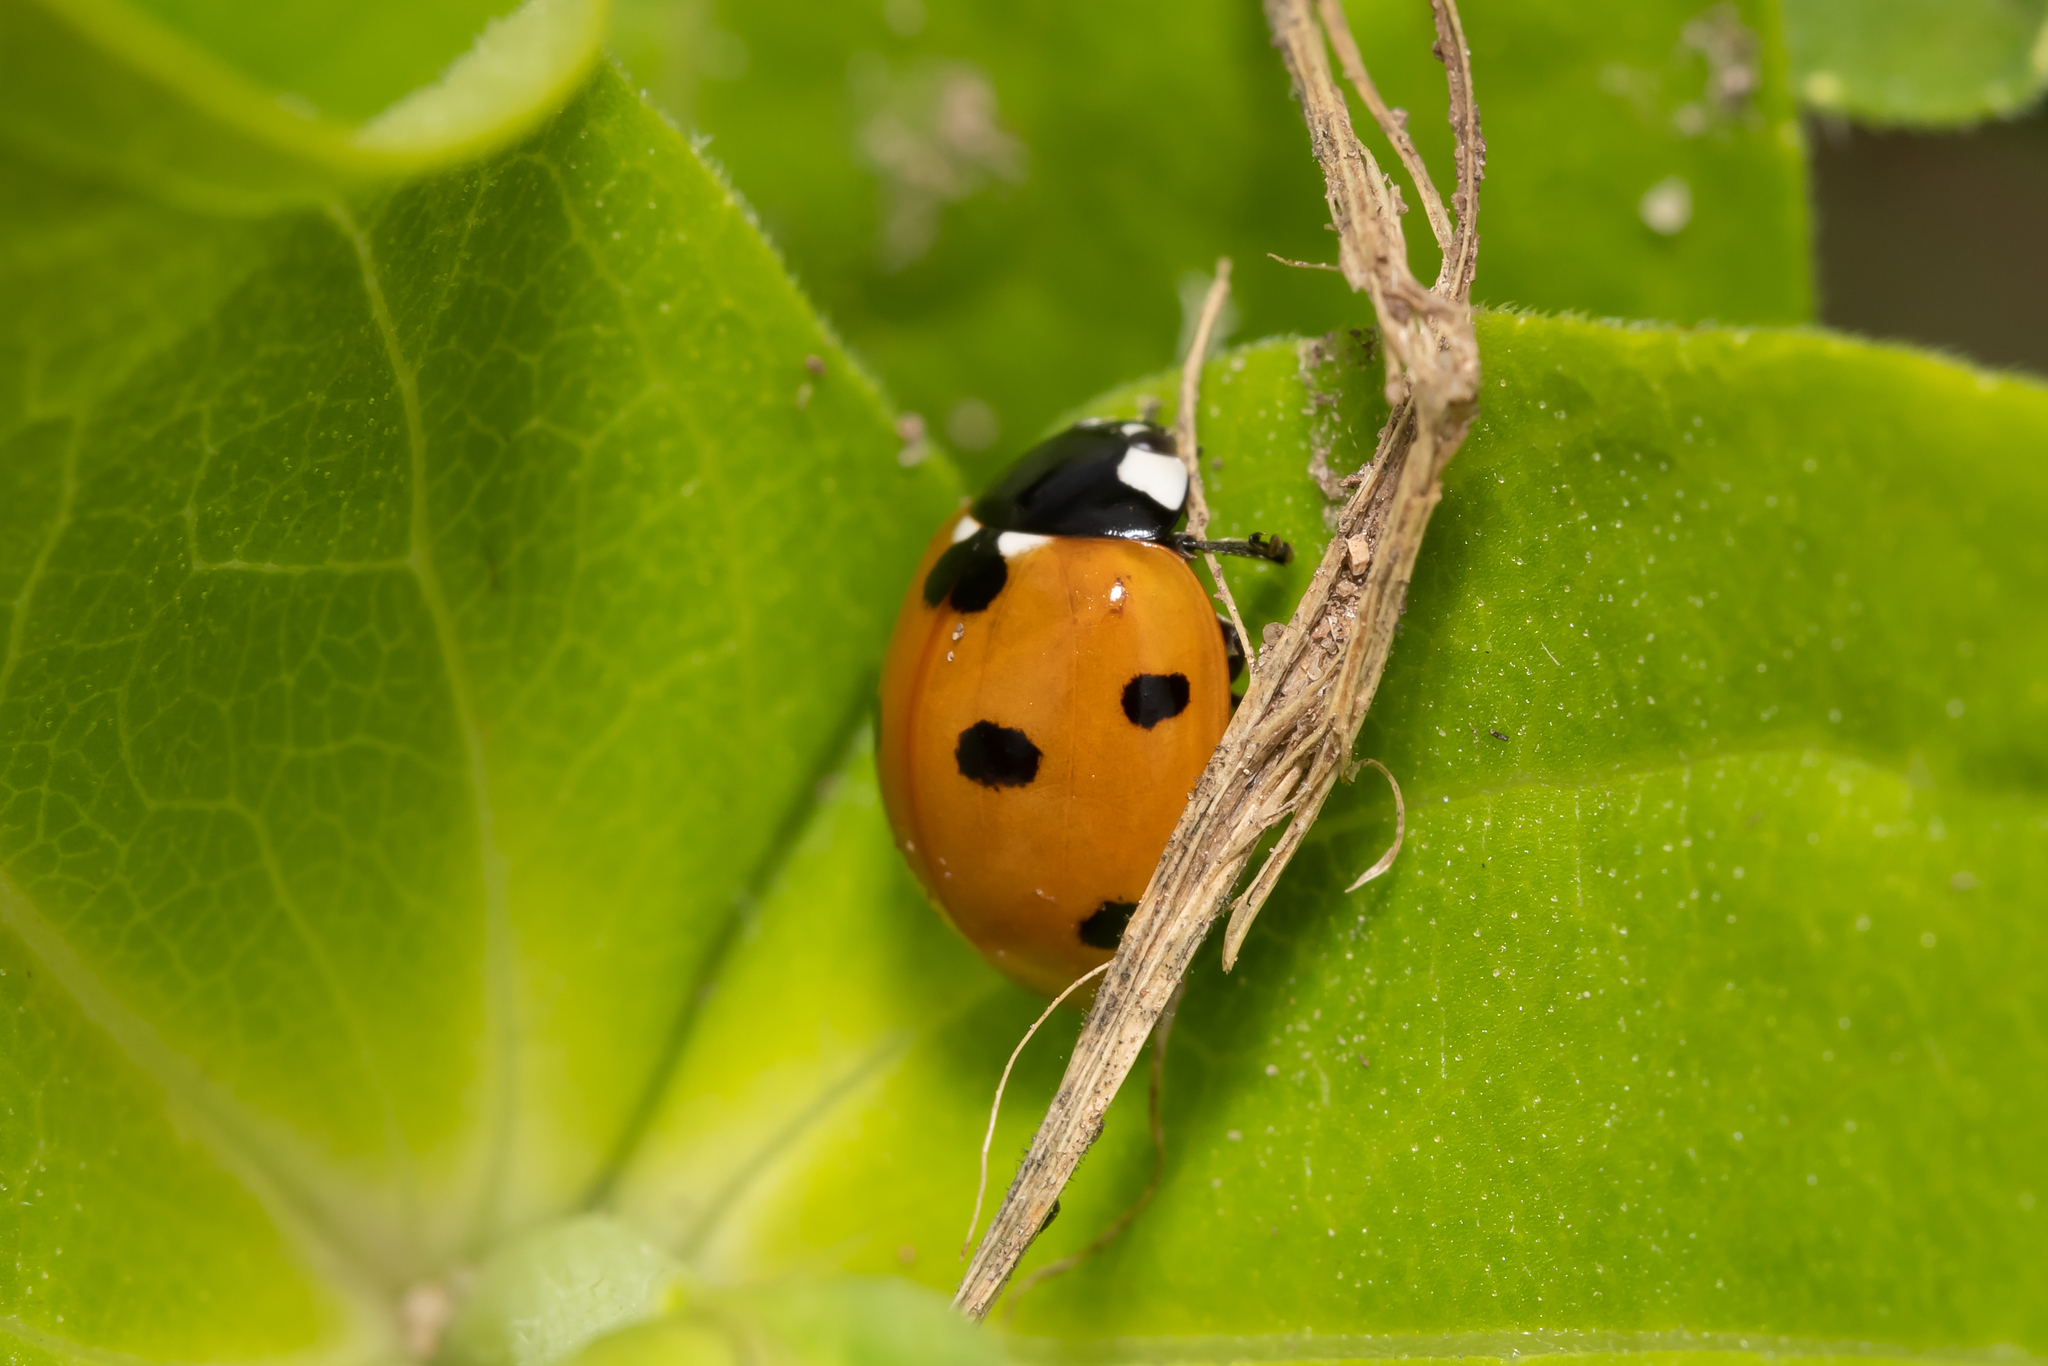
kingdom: Animalia
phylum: Arthropoda
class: Insecta
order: Coleoptera
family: Coccinellidae
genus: Coccinella
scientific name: Coccinella septempunctata
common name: Sevenspotted lady beetle
